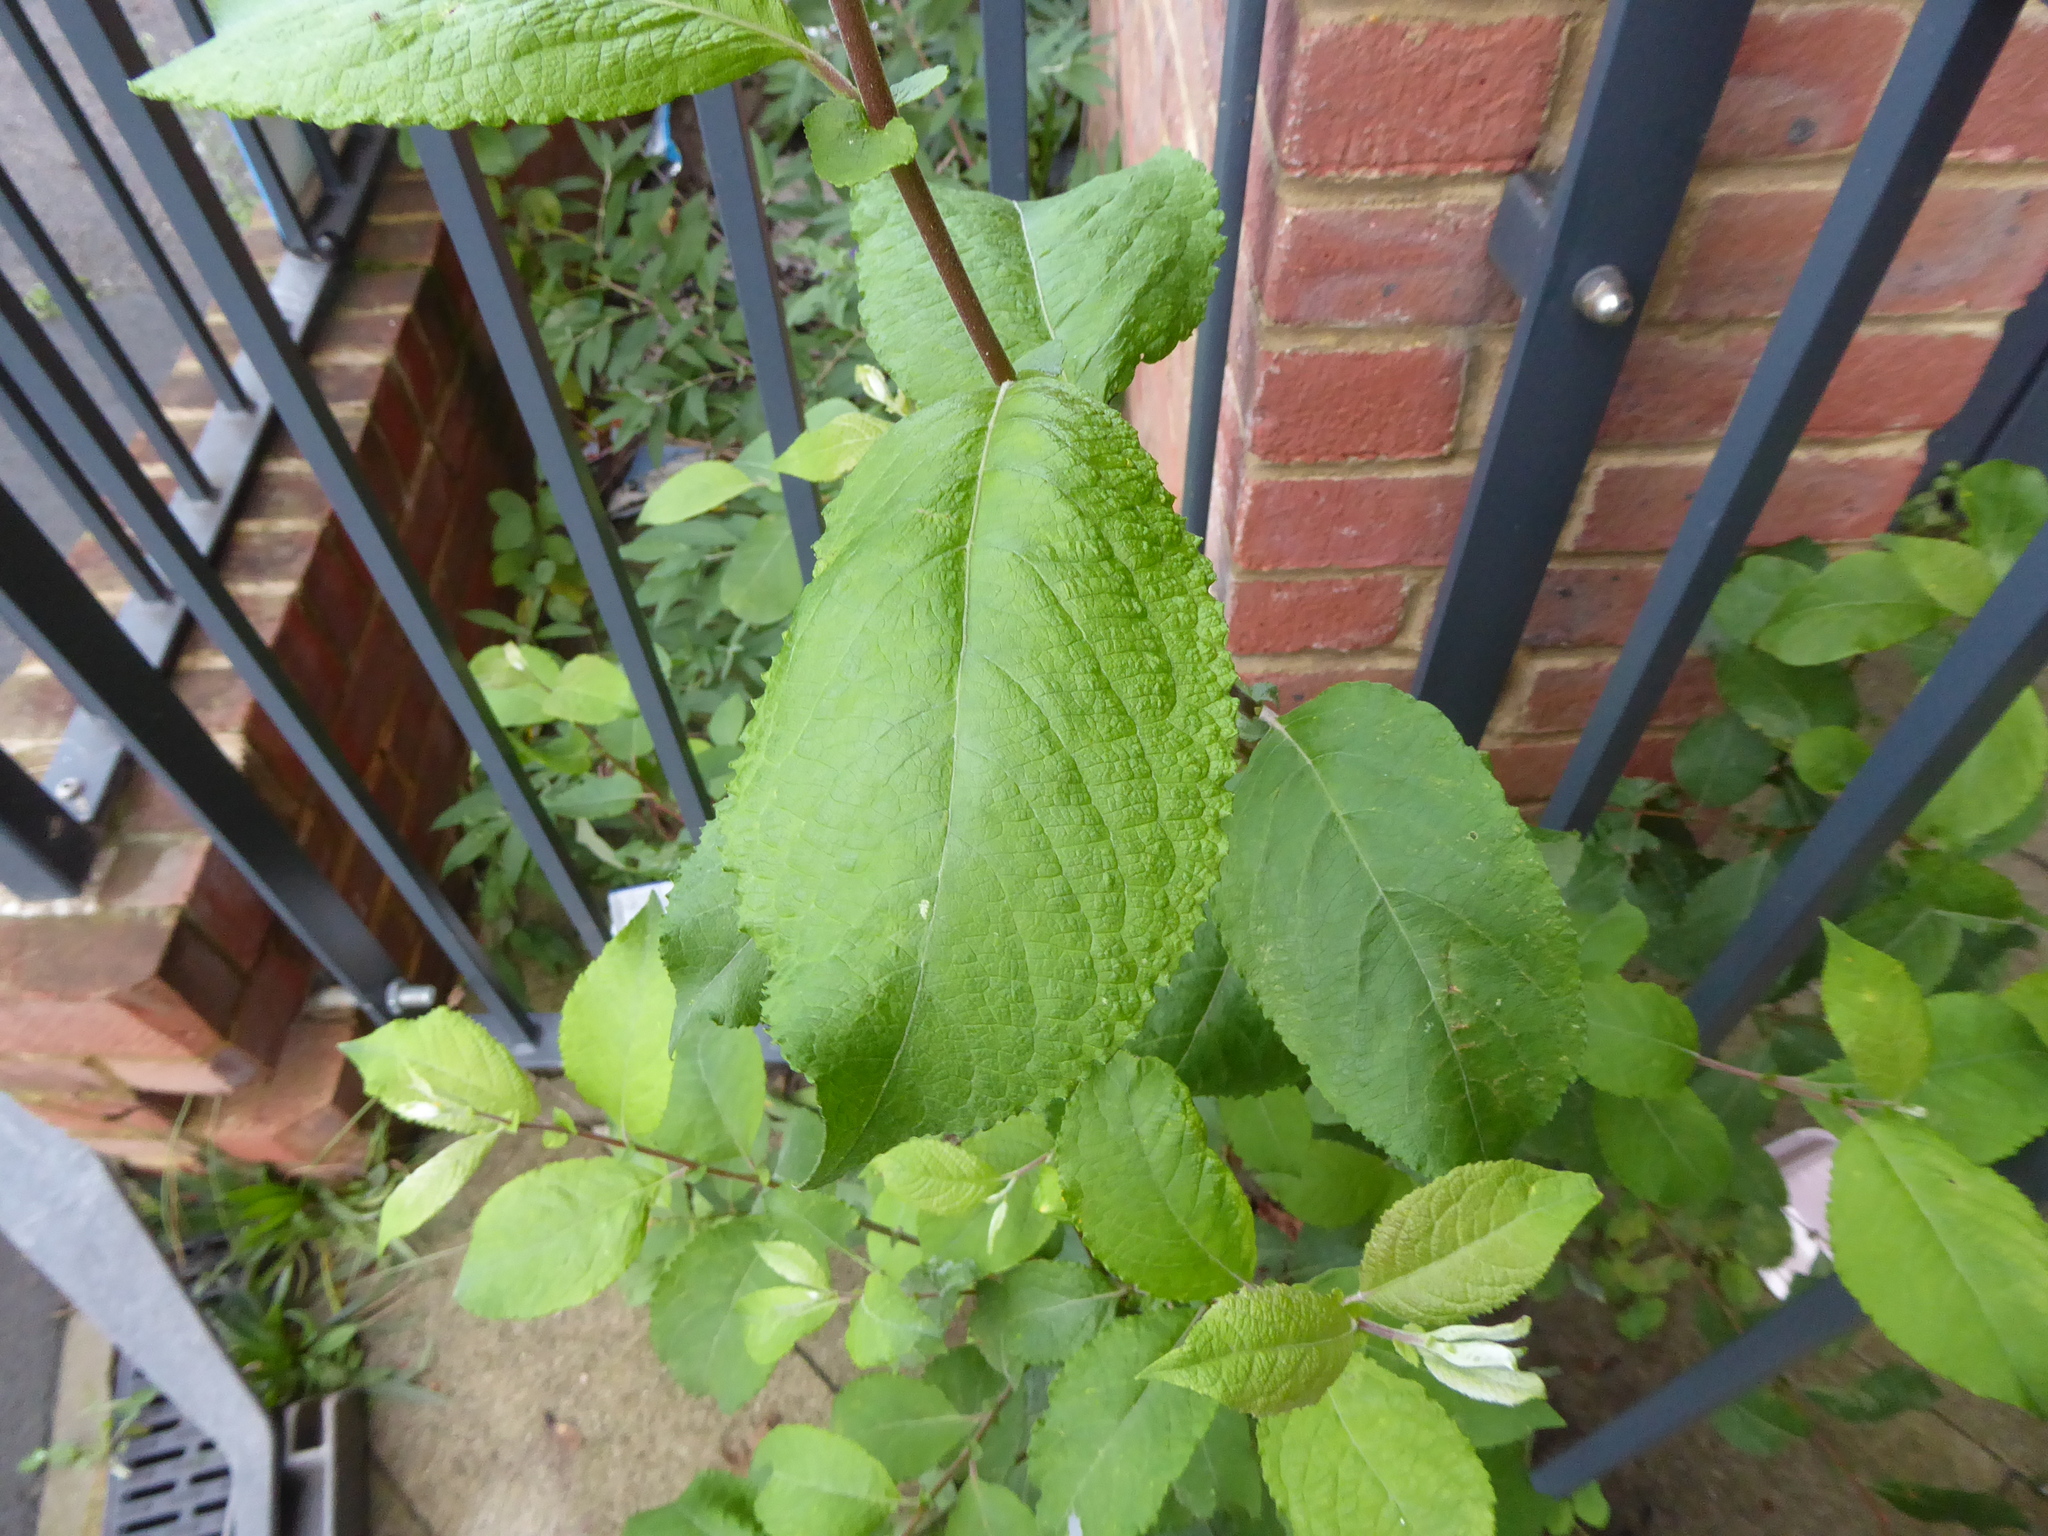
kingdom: Plantae
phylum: Tracheophyta
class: Magnoliopsida
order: Malpighiales
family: Salicaceae
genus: Salix
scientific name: Salix caprea
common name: Goat willow
